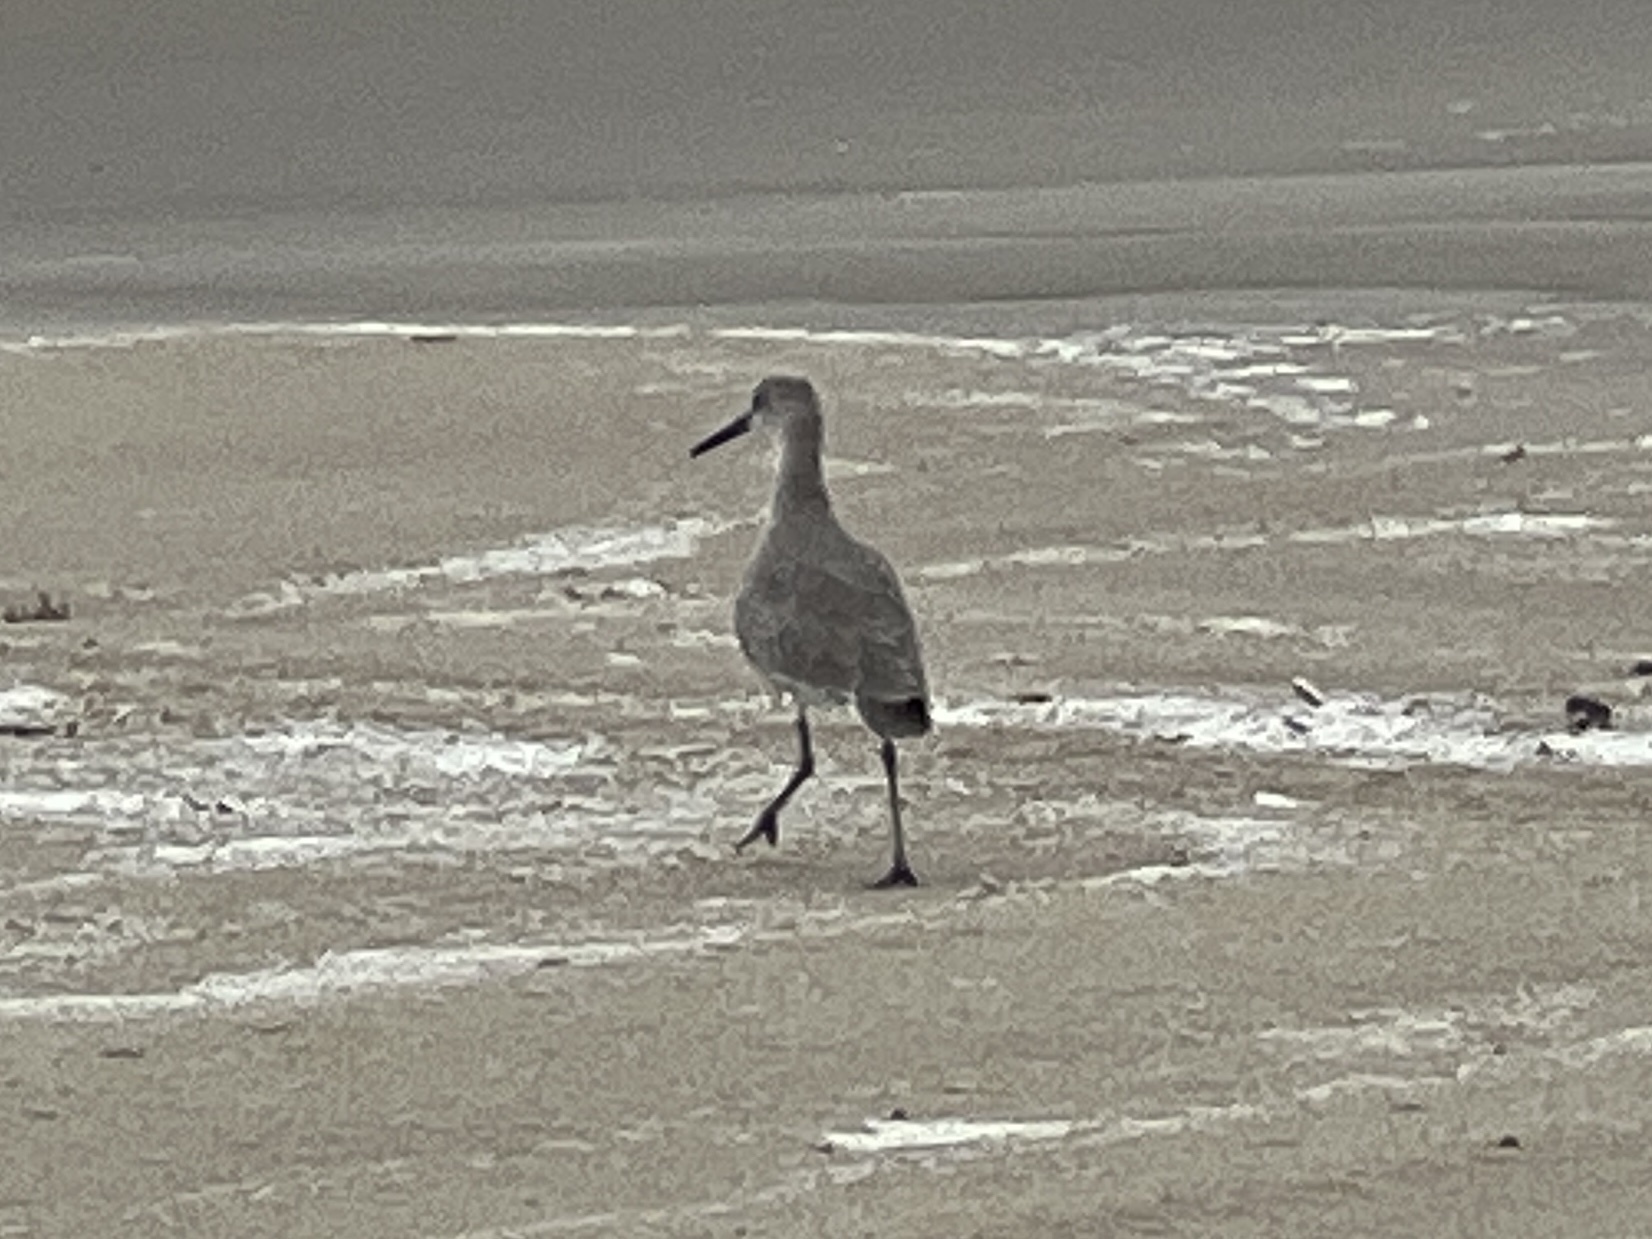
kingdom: Animalia
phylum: Chordata
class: Aves
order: Charadriiformes
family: Scolopacidae
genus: Tringa
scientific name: Tringa semipalmata
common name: Willet
